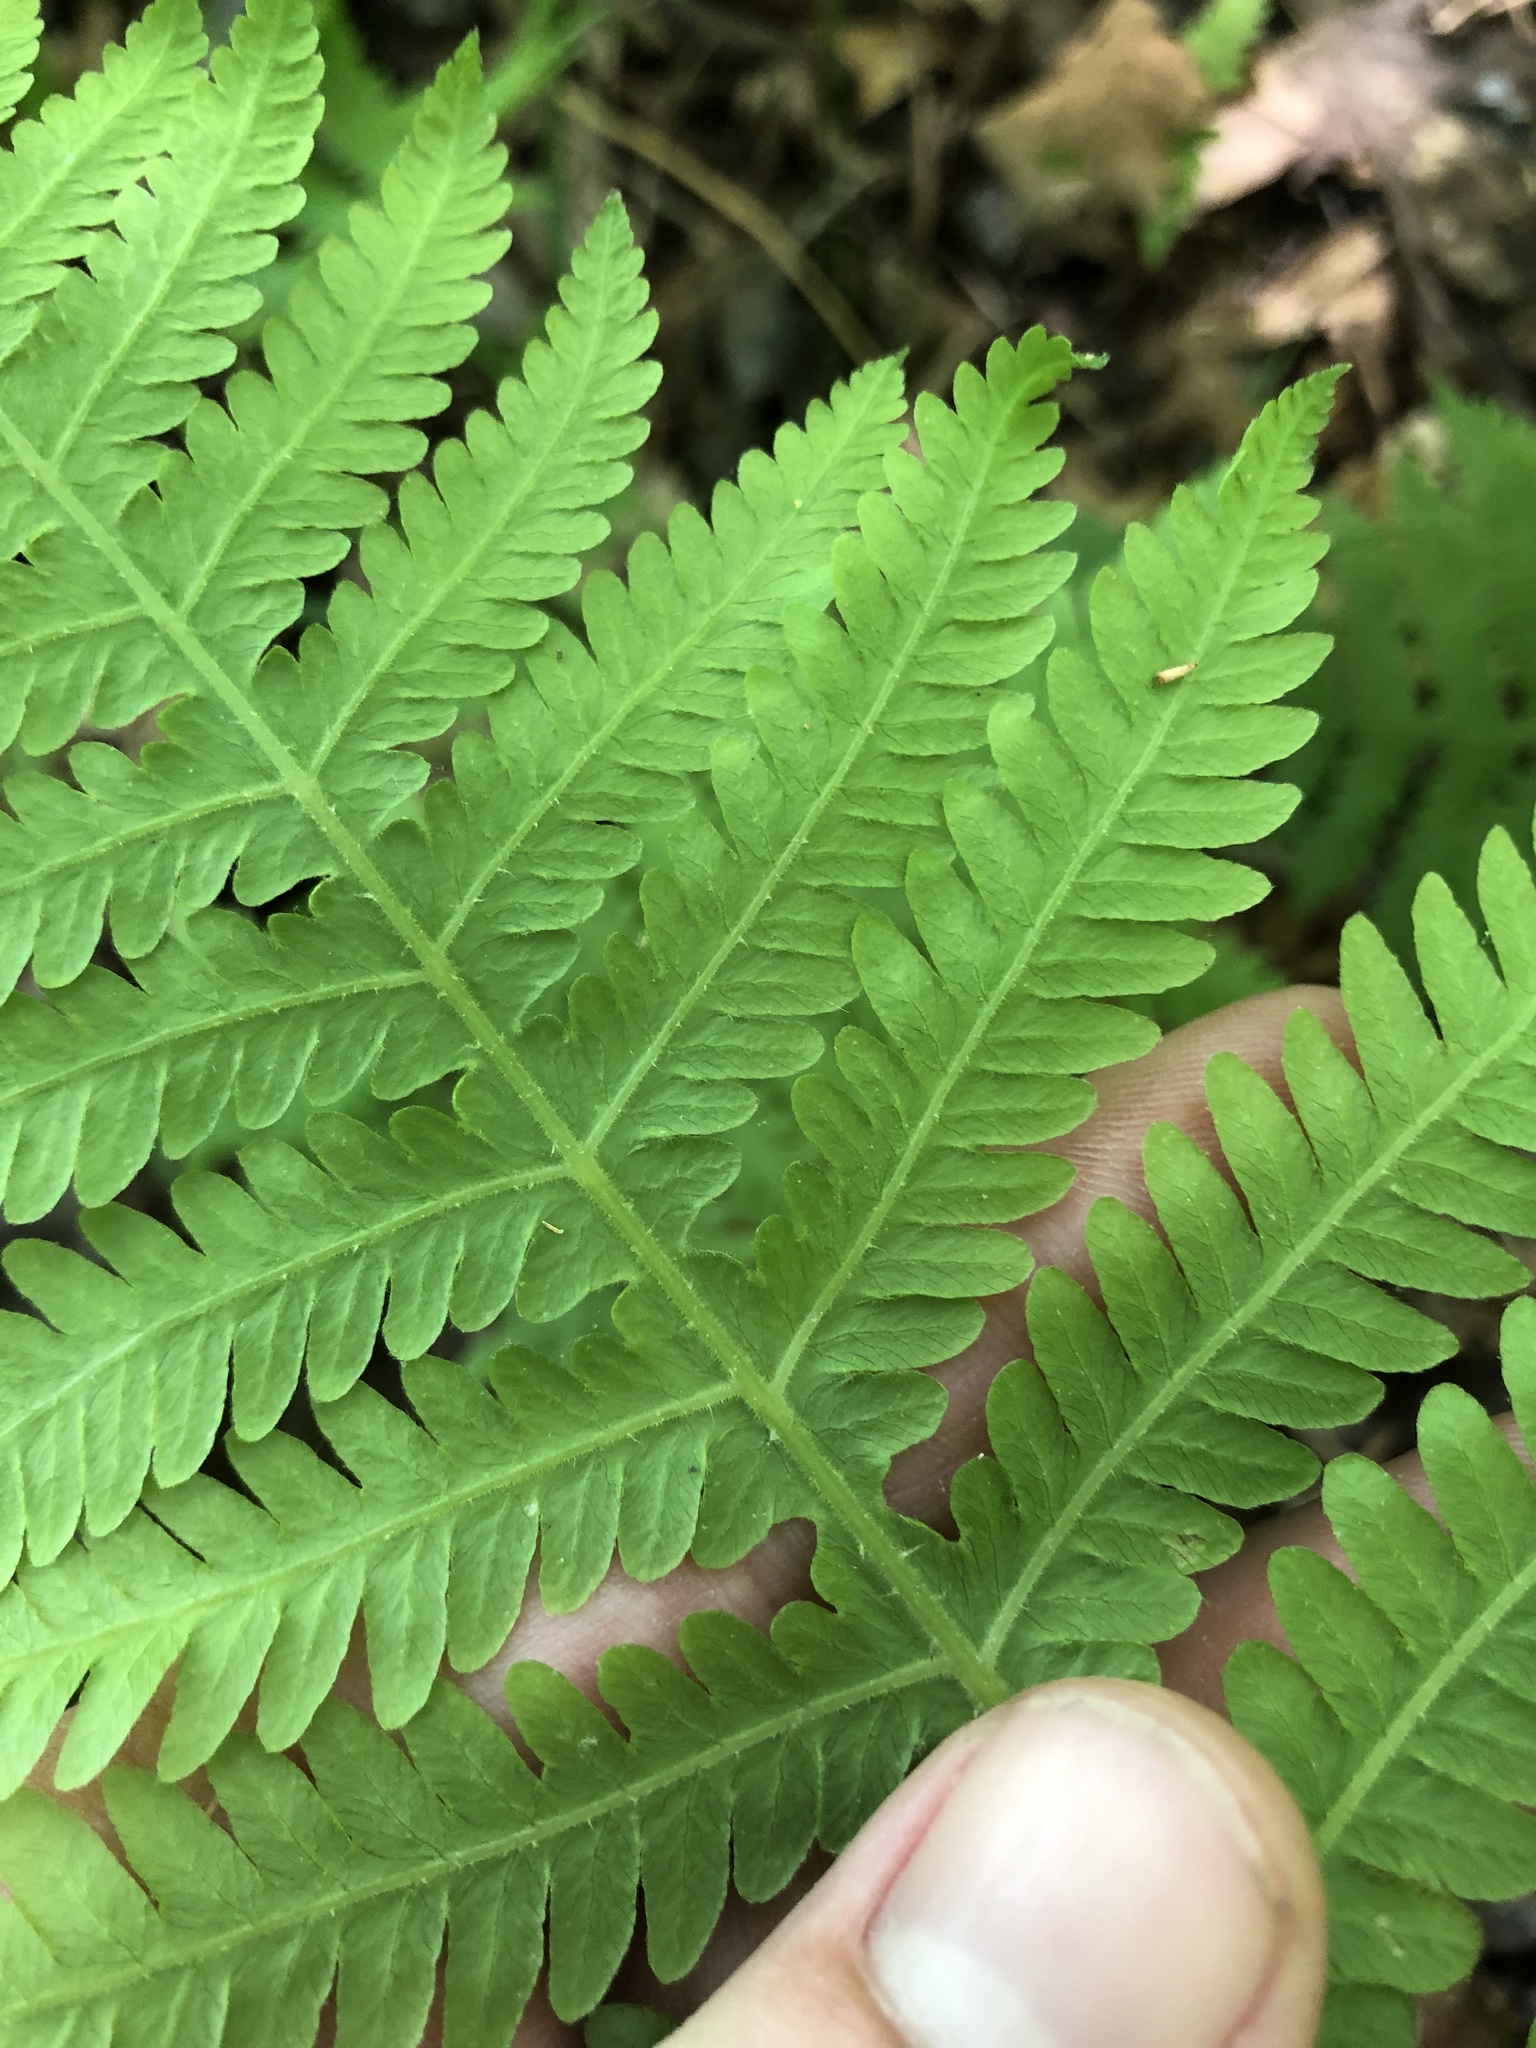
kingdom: Plantae
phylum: Tracheophyta
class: Polypodiopsida
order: Polypodiales
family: Thelypteridaceae
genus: Phegopteris
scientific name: Phegopteris hexagonoptera
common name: Broad beech fern
